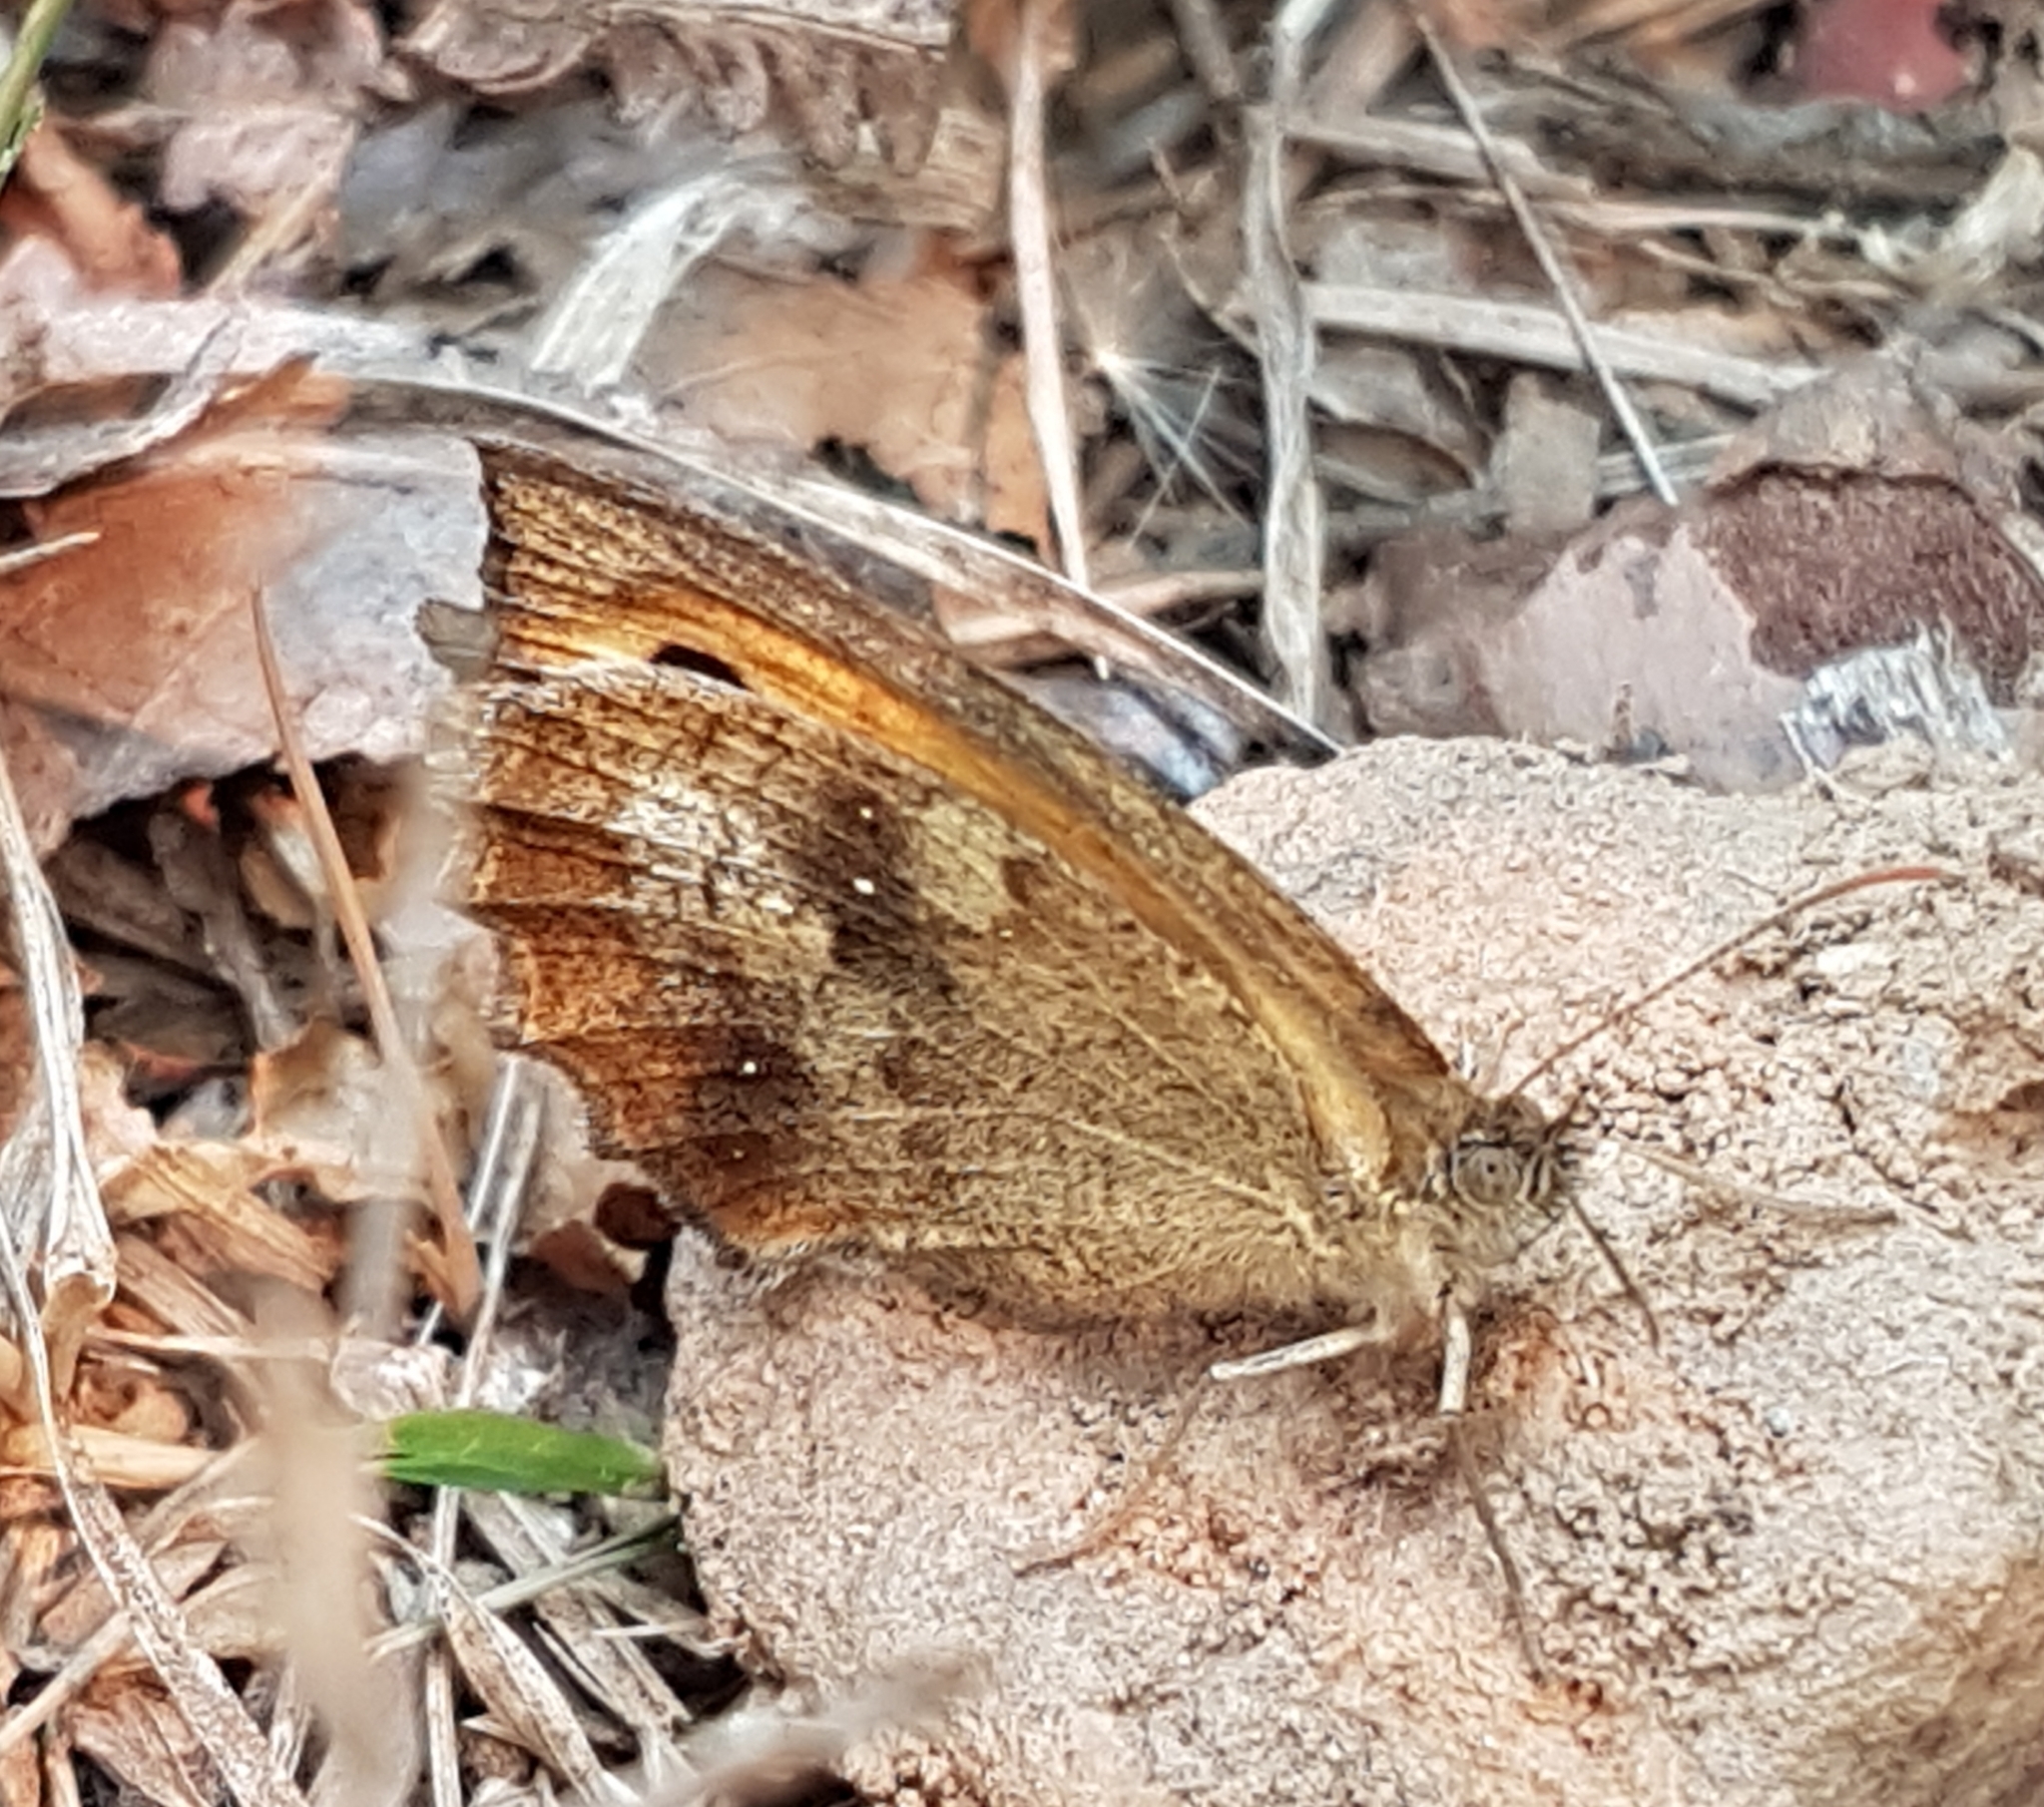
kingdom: Animalia
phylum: Arthropoda
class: Insecta
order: Lepidoptera
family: Nymphalidae
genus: Pyronia
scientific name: Pyronia tithonus
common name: Gatekeeper
